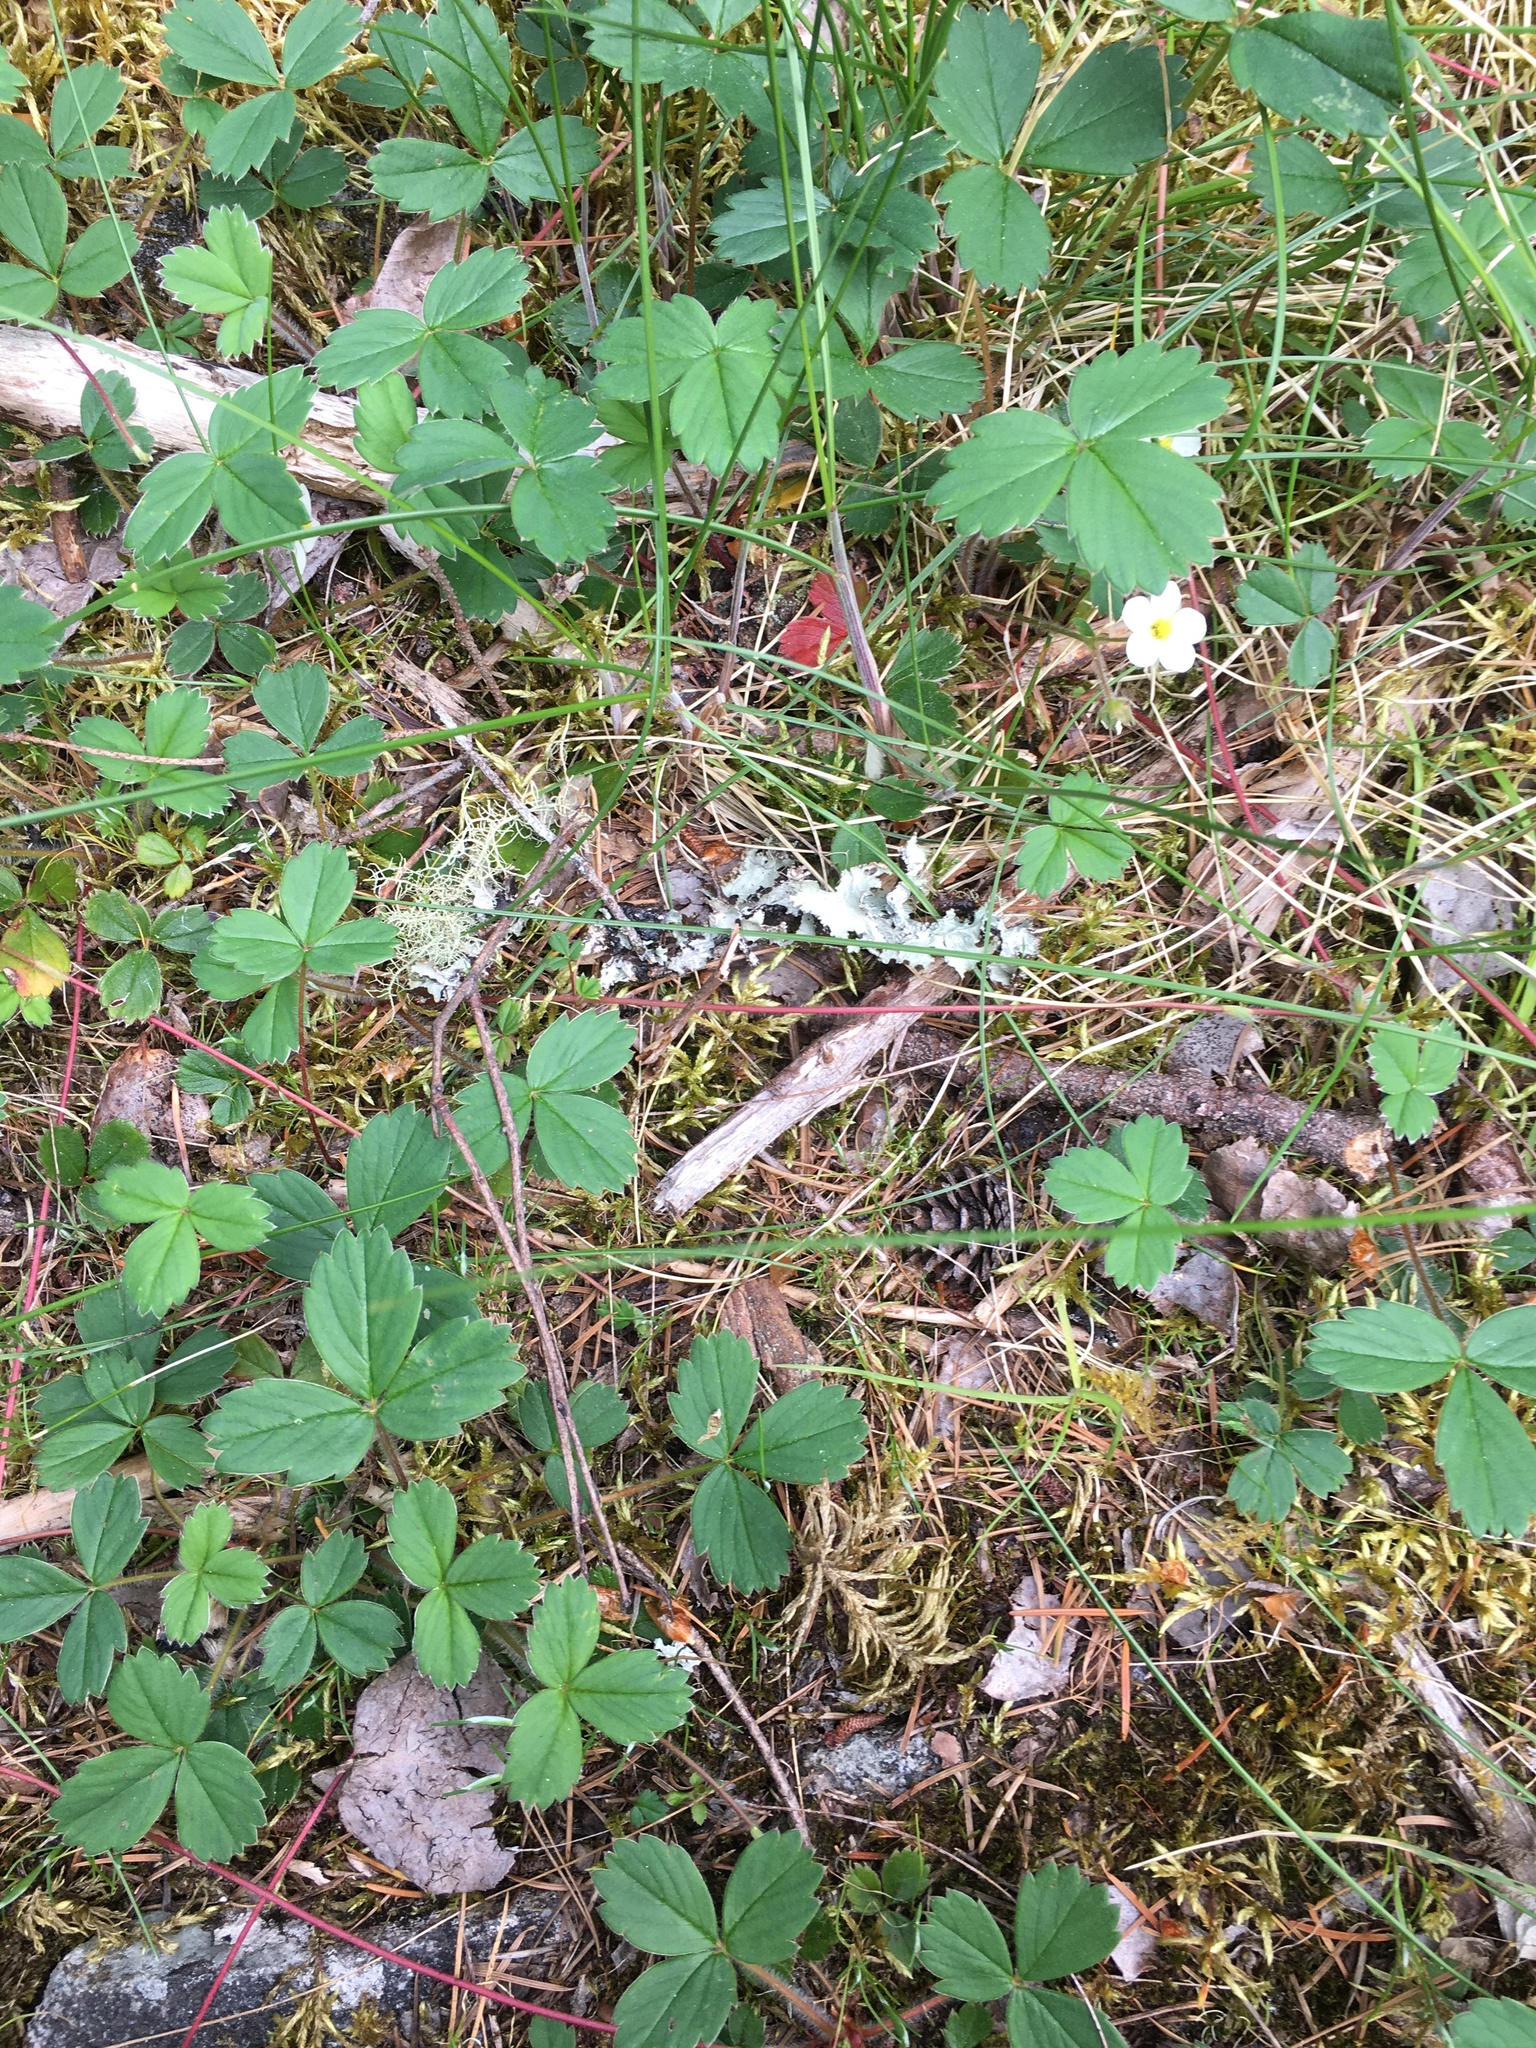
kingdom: Plantae
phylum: Tracheophyta
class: Magnoliopsida
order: Rosales
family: Rosaceae
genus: Fragaria
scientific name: Fragaria vesca
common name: Wild strawberry
